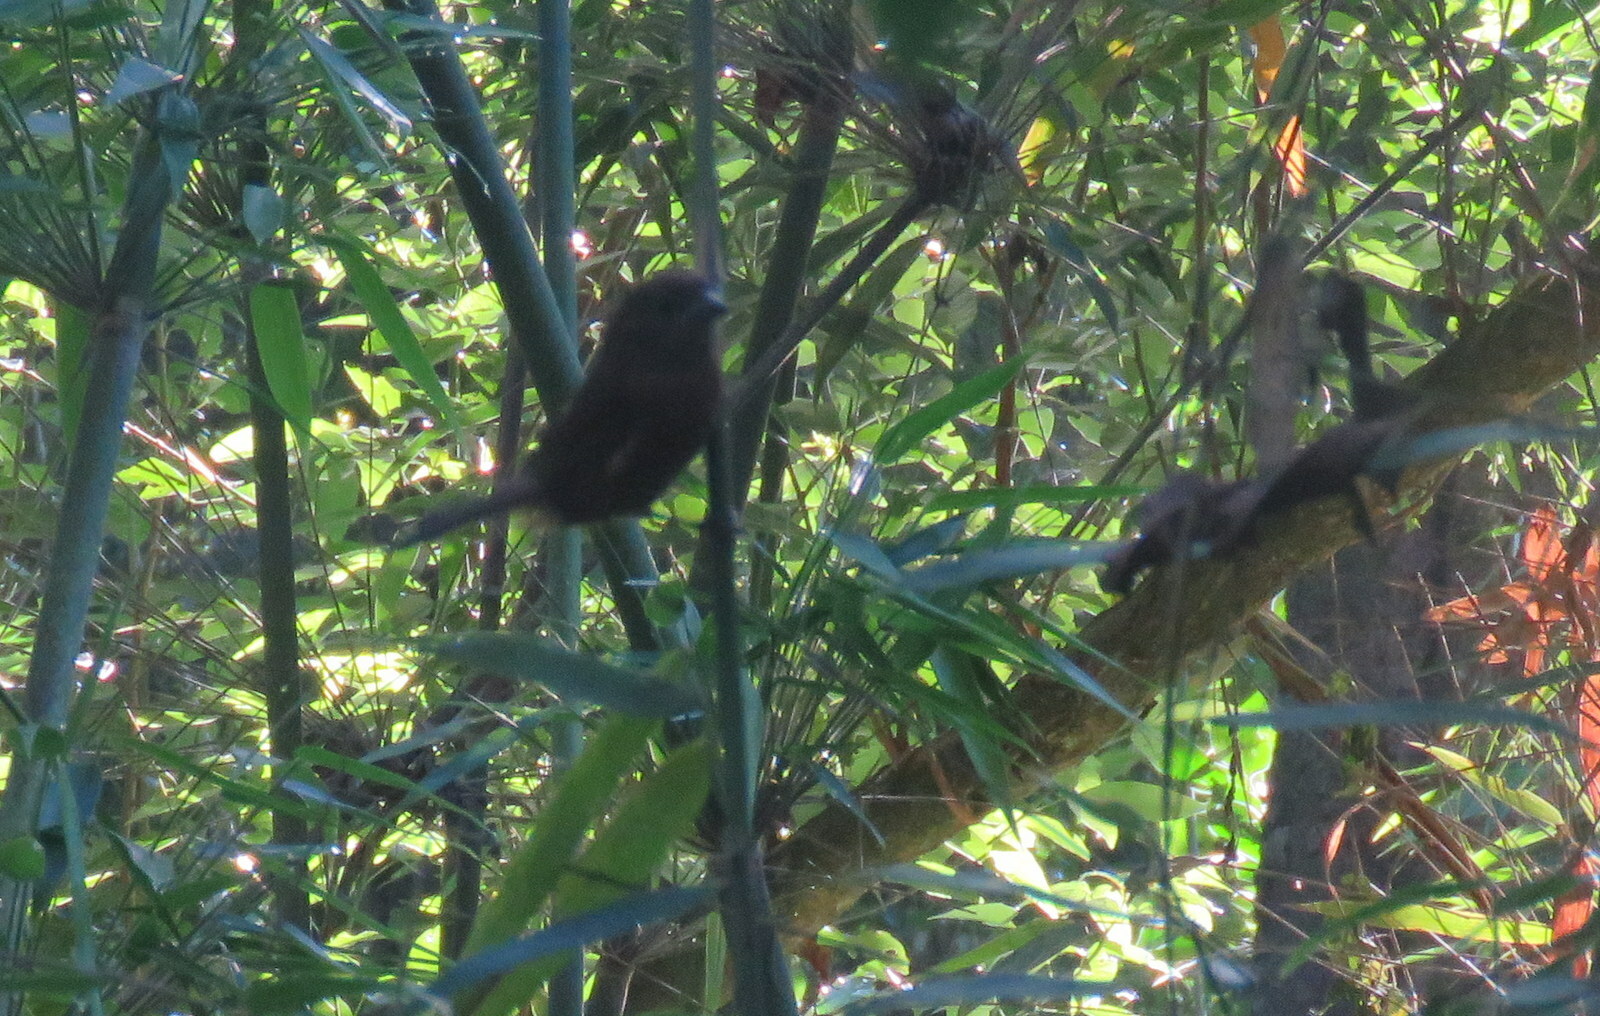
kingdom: Animalia
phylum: Chordata
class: Aves
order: Passeriformes
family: Cardinalidae
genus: Amaurospiza
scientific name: Amaurospiza moesta
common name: Blackish-blue seedeater
